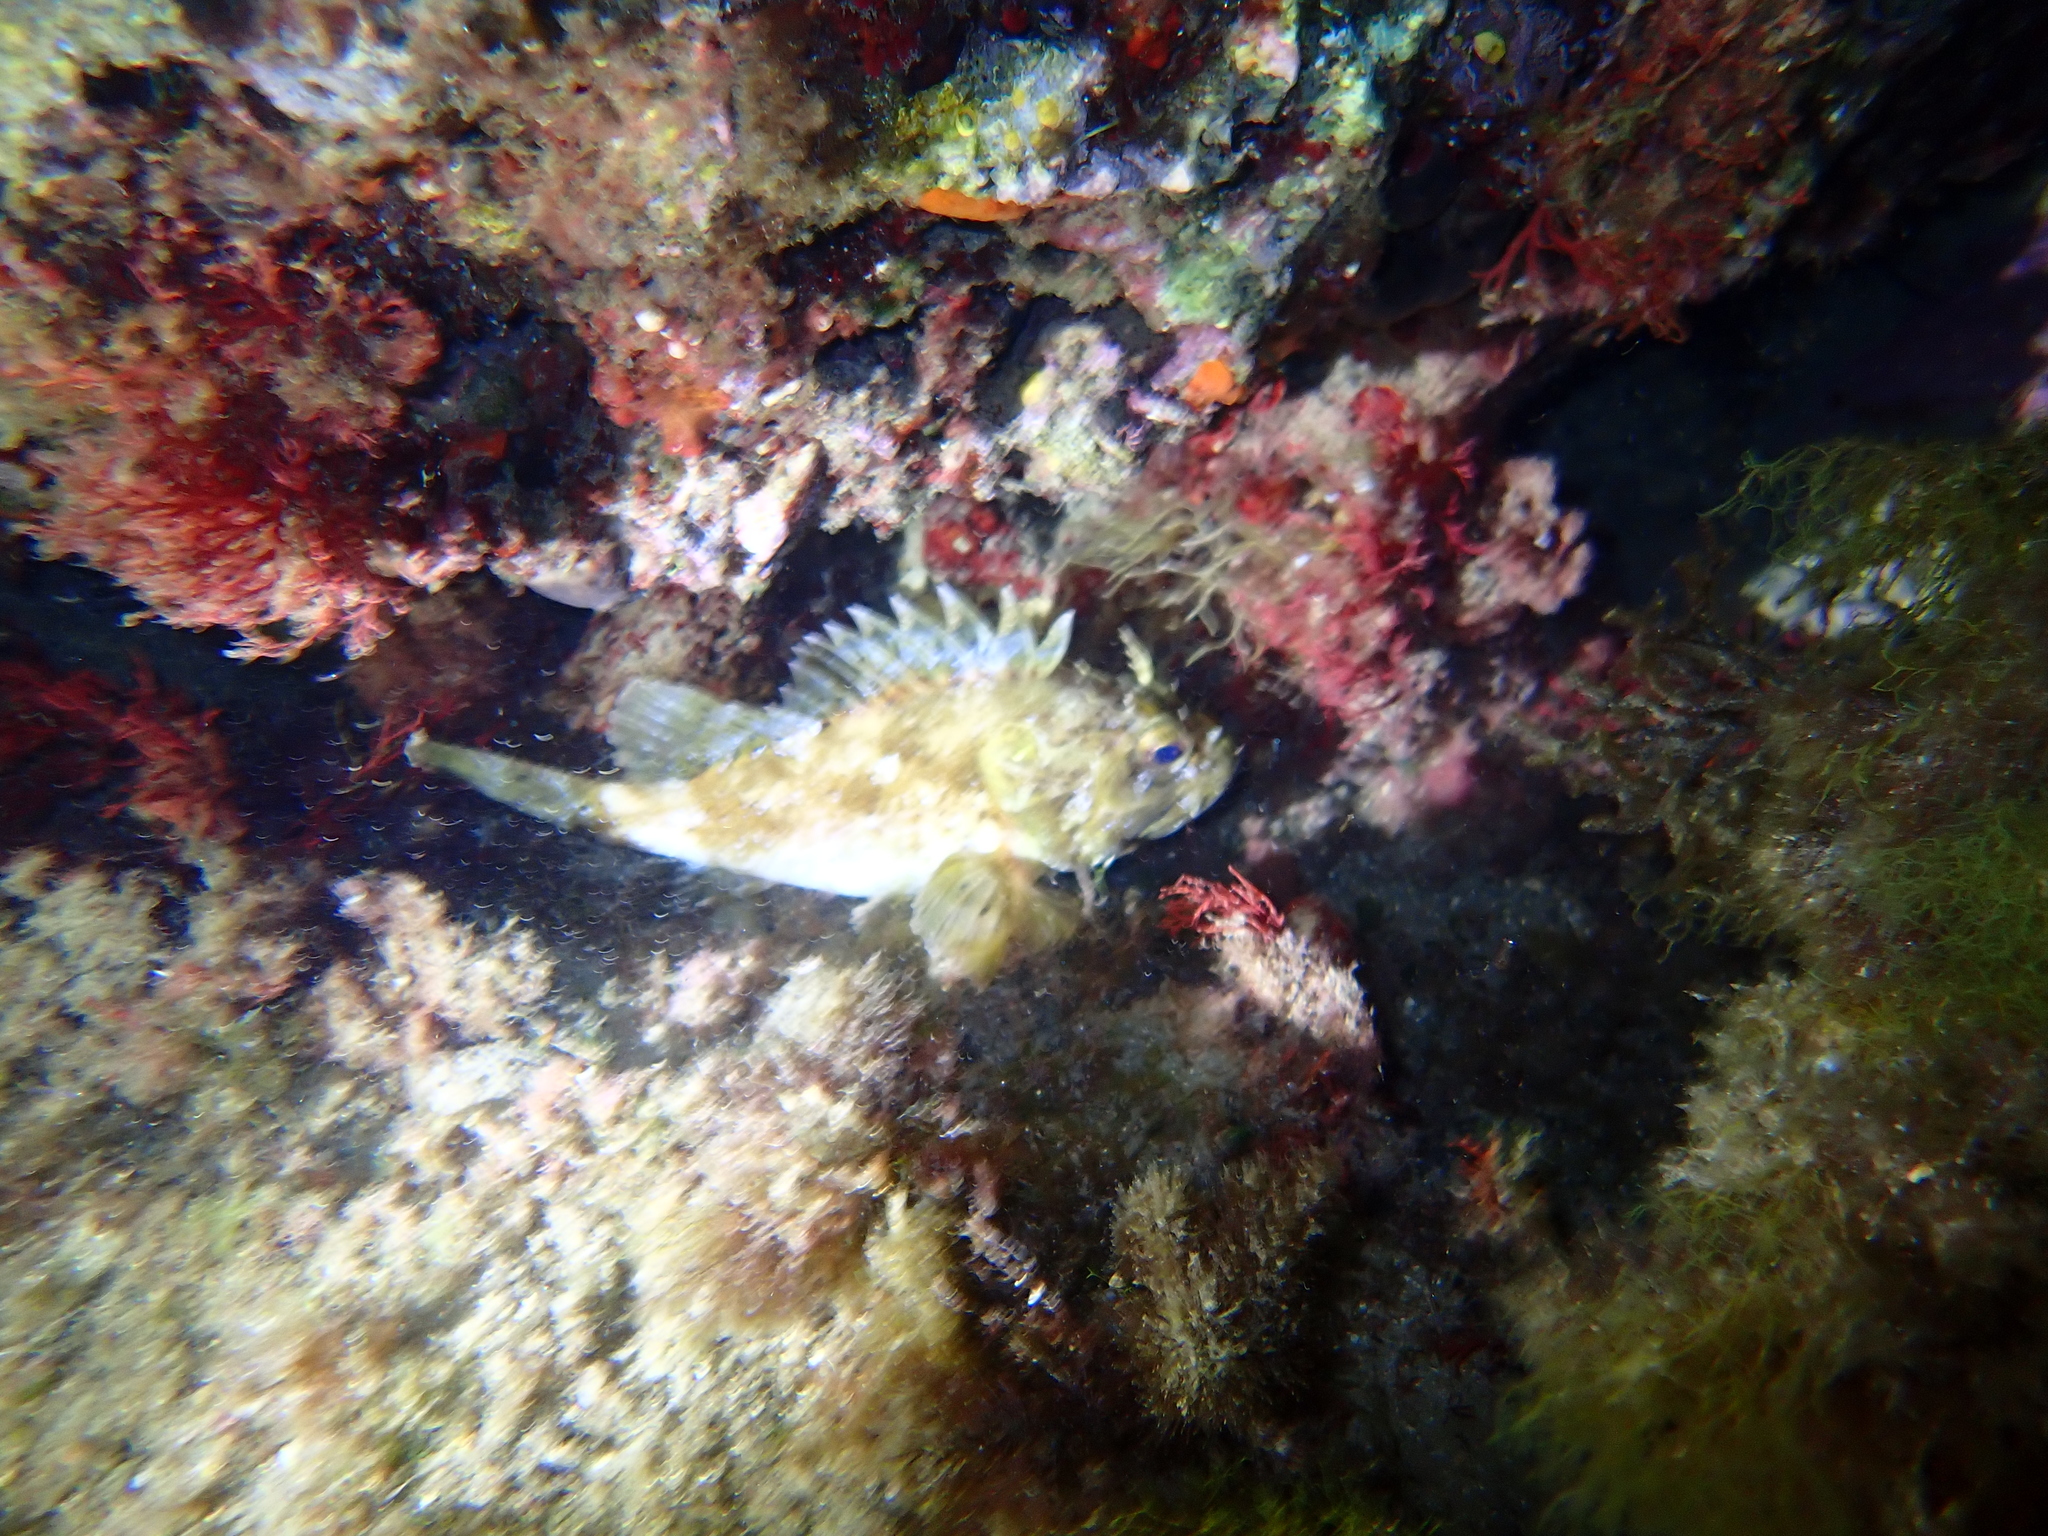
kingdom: Animalia
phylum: Chordata
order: Scorpaeniformes
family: Scorpaenidae
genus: Scorpaena
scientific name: Scorpaena porcus
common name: Black scorpionfish
